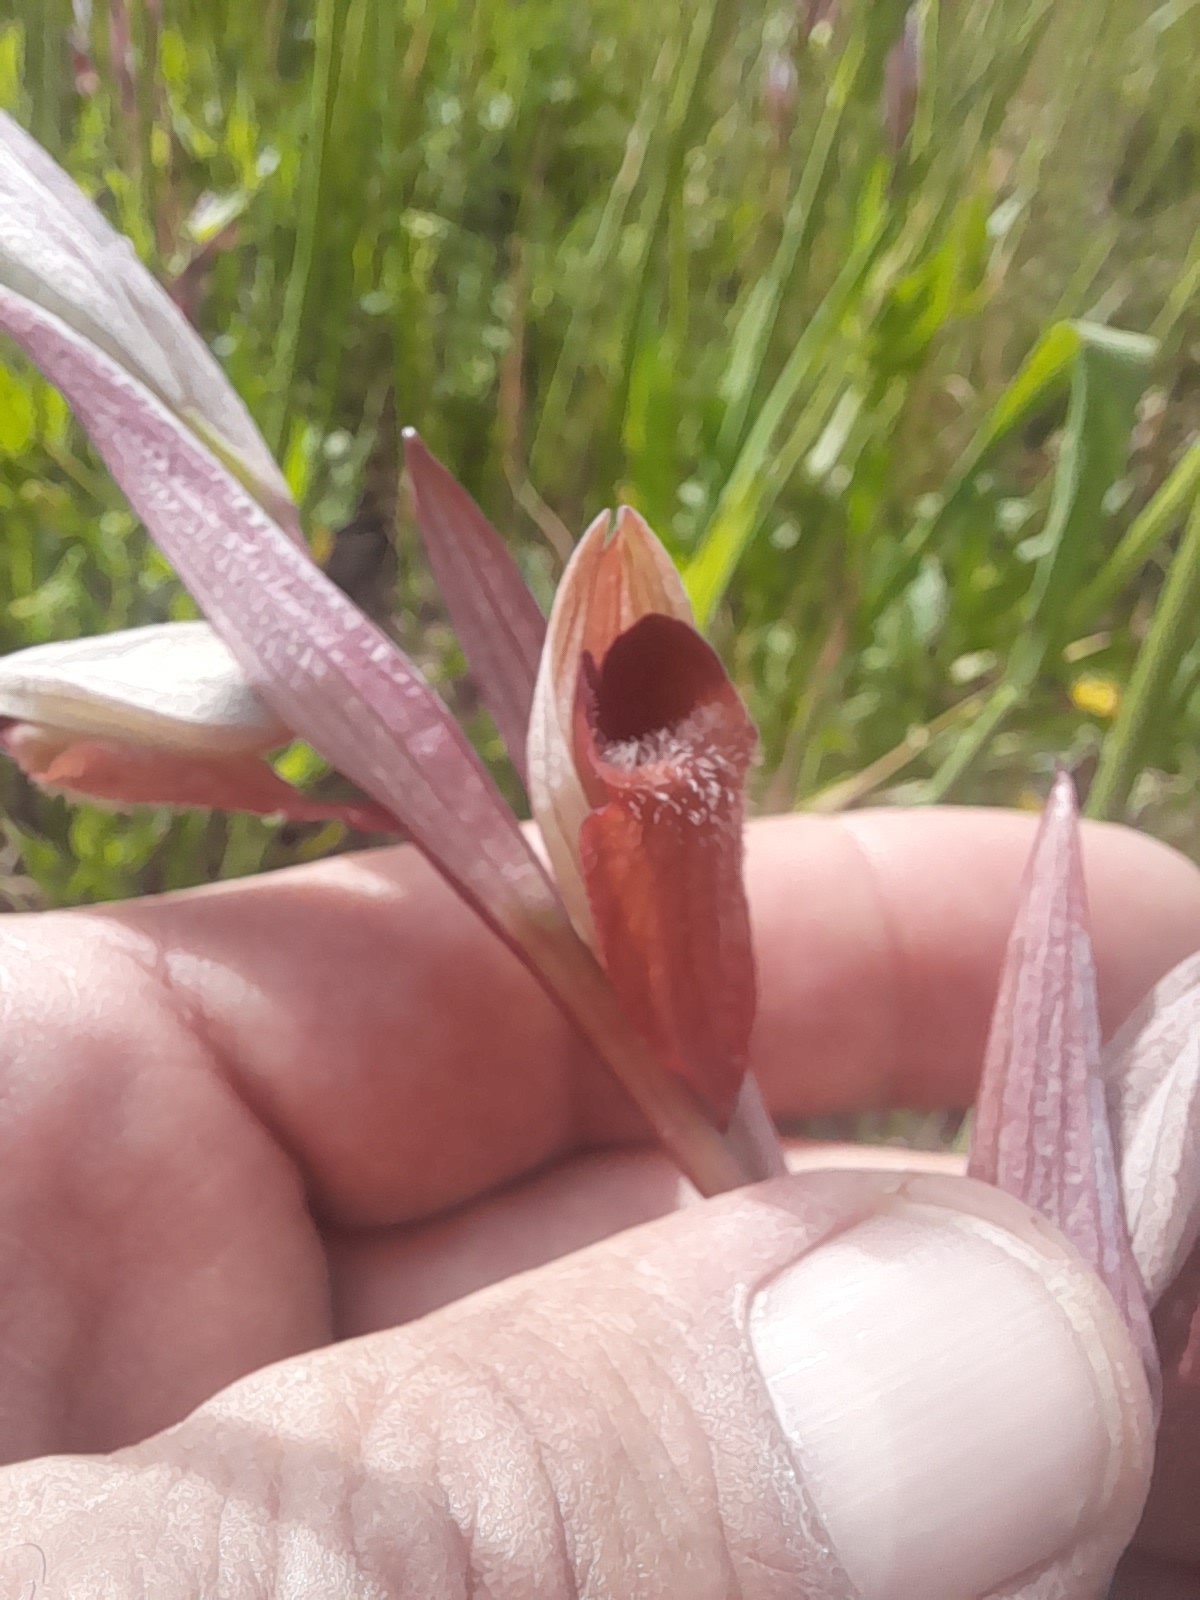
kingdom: Plantae
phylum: Tracheophyta
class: Liliopsida
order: Asparagales
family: Orchidaceae
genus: Serapias
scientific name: Serapias vomeracea
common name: Long-lipped tongue-orchid
